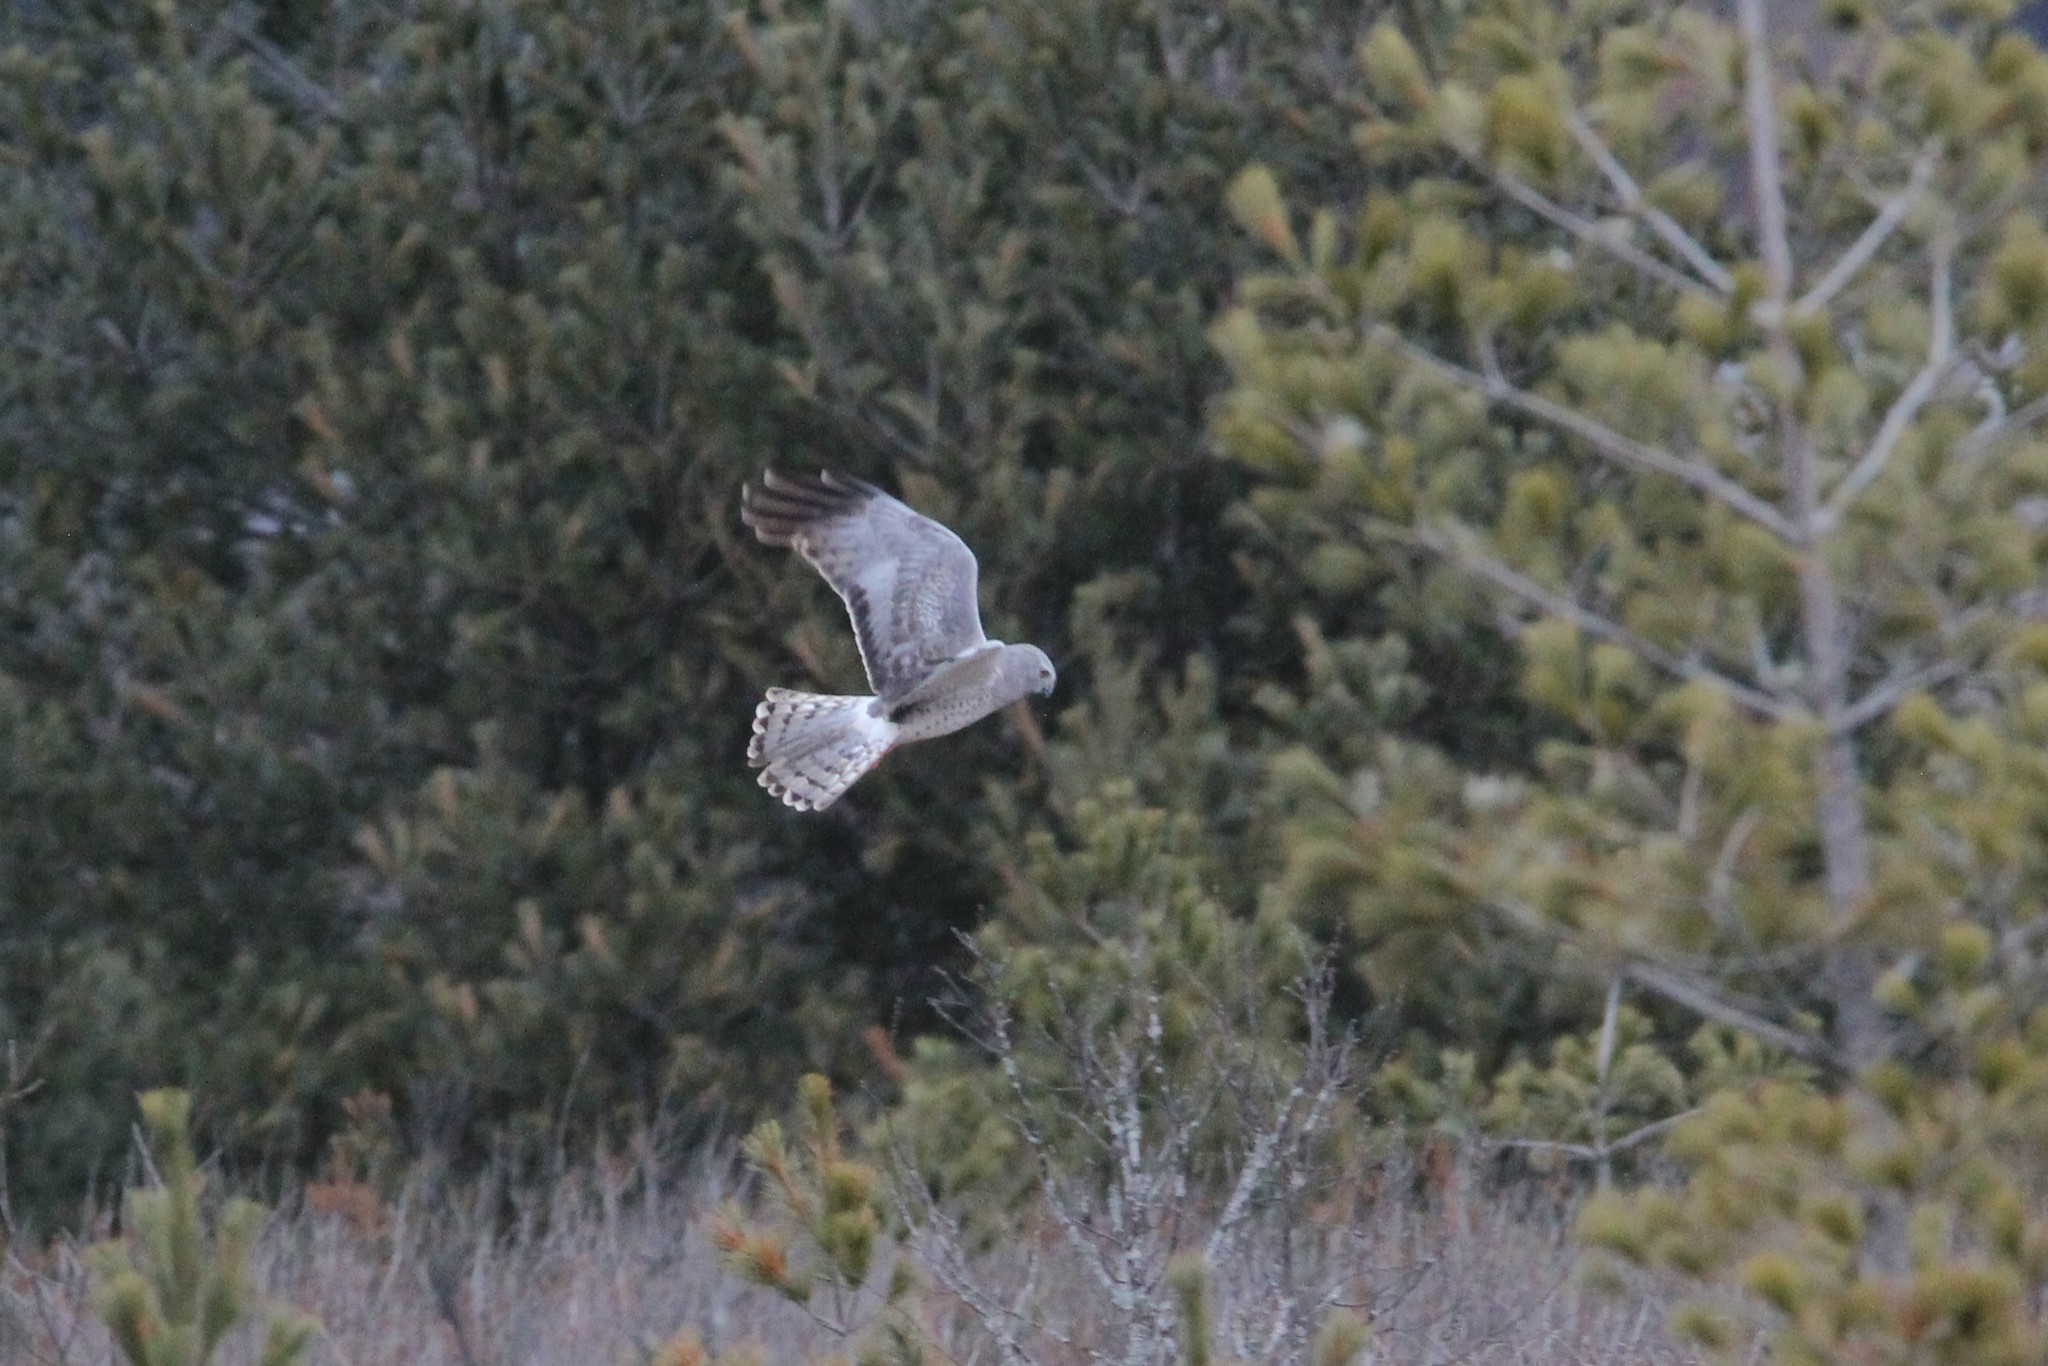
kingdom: Animalia
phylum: Chordata
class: Aves
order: Accipitriformes
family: Accipitridae
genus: Circus
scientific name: Circus cyaneus
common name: Hen harrier
